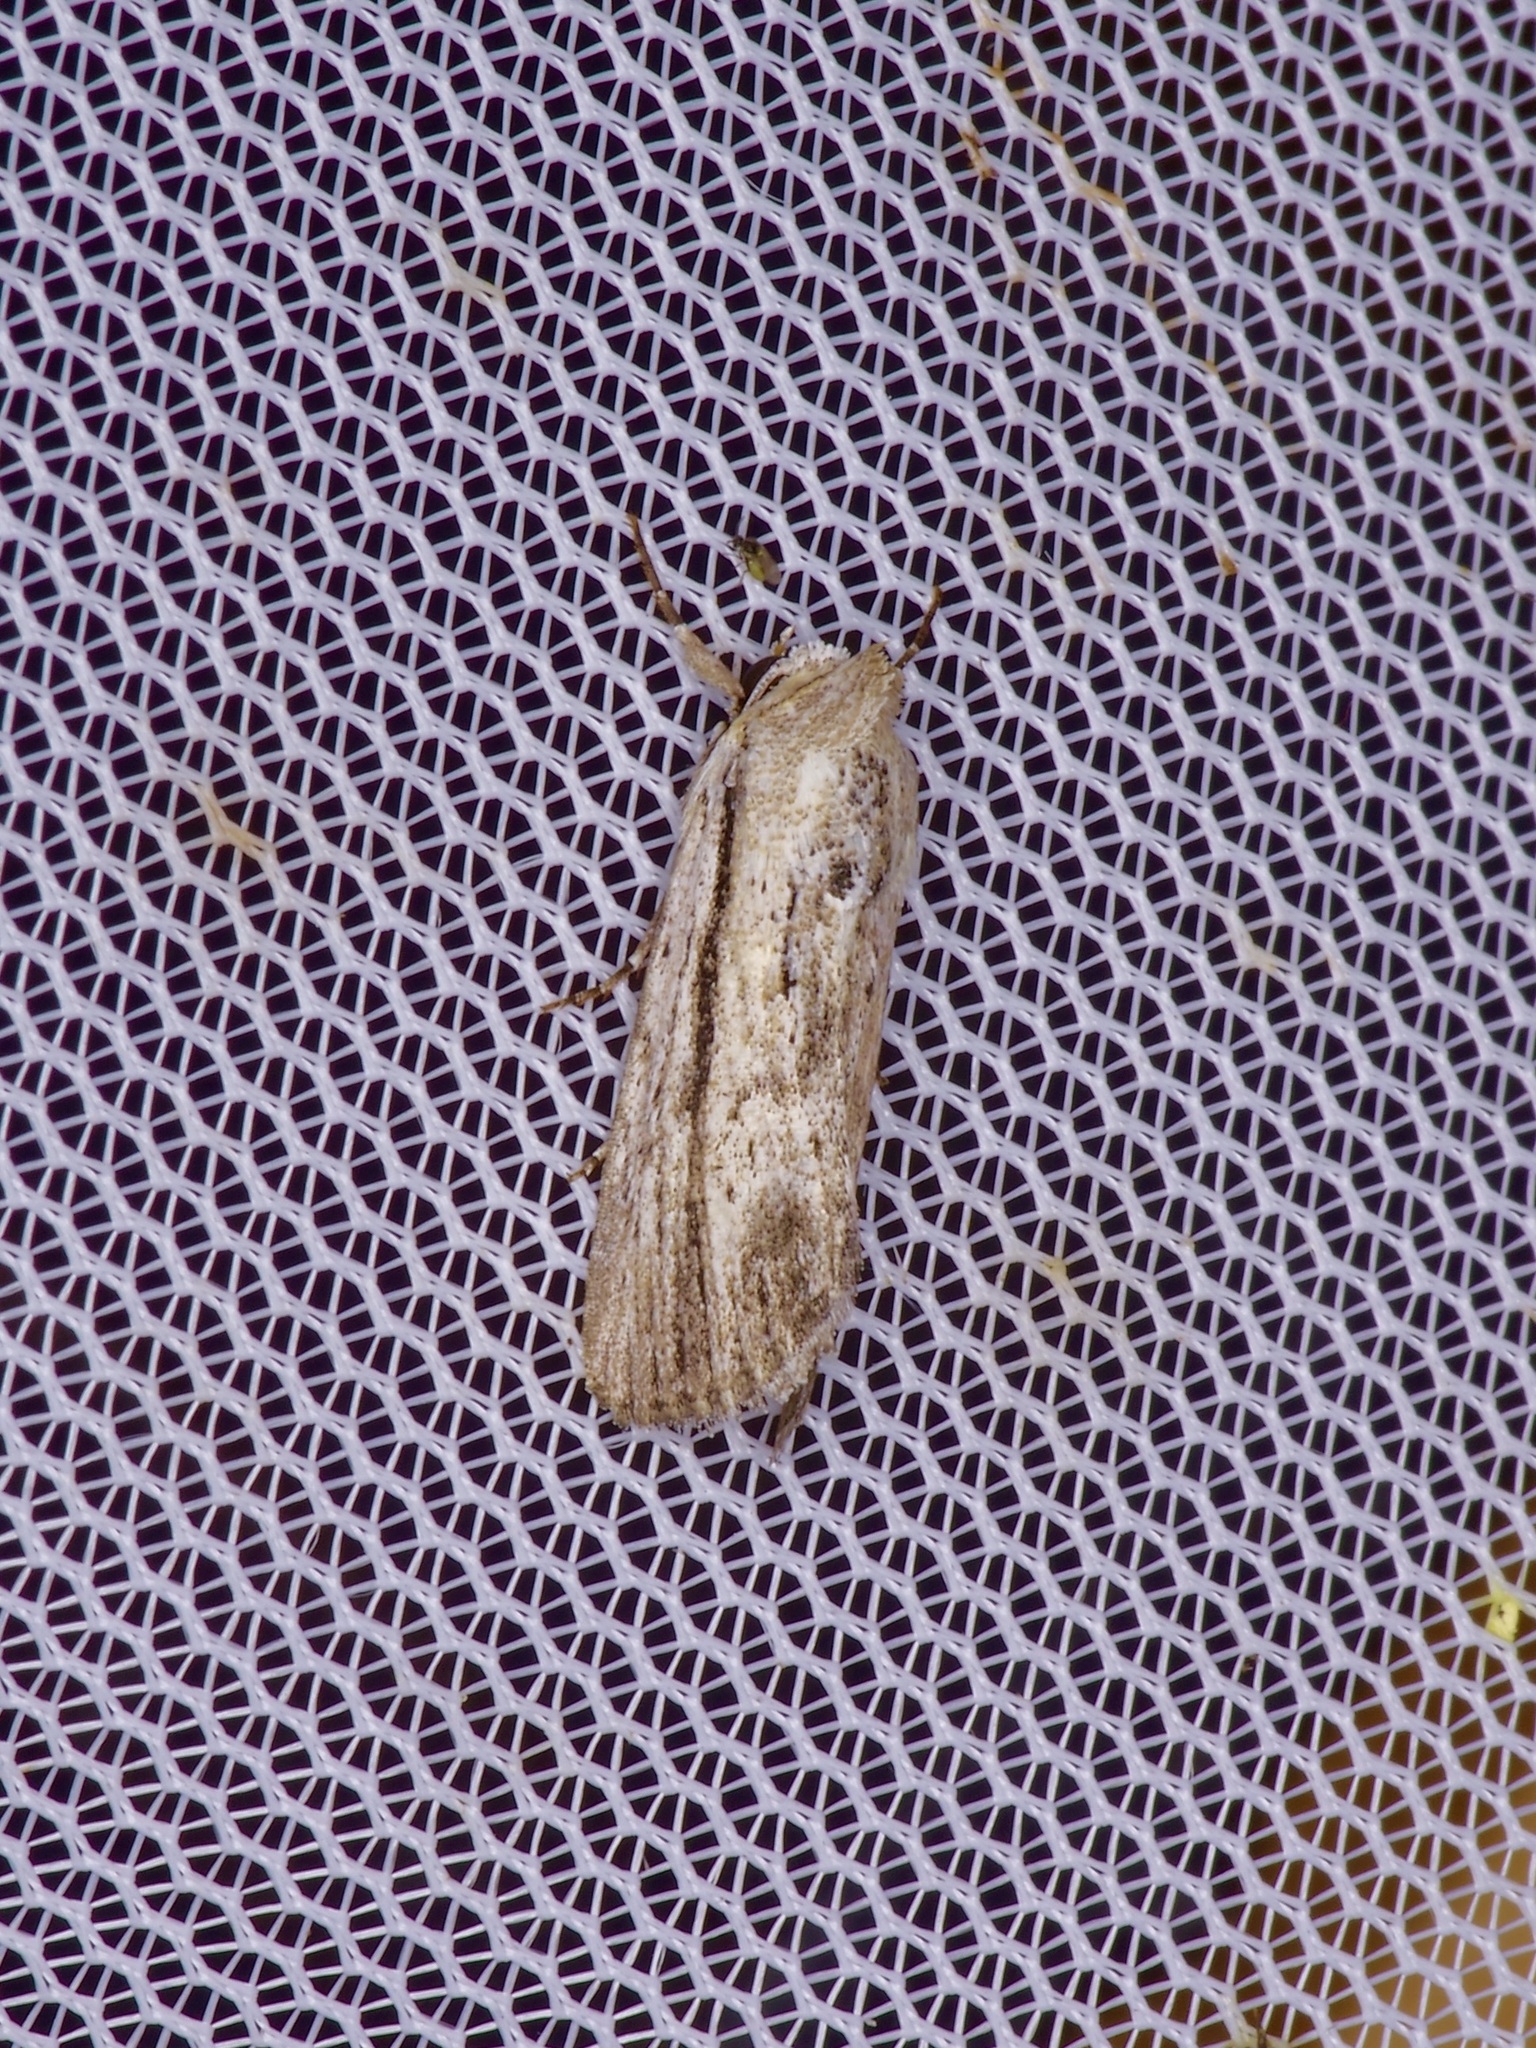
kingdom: Animalia
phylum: Arthropoda
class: Insecta
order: Lepidoptera
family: Noctuidae
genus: Catabenoides
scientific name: Catabenoides terminellus
